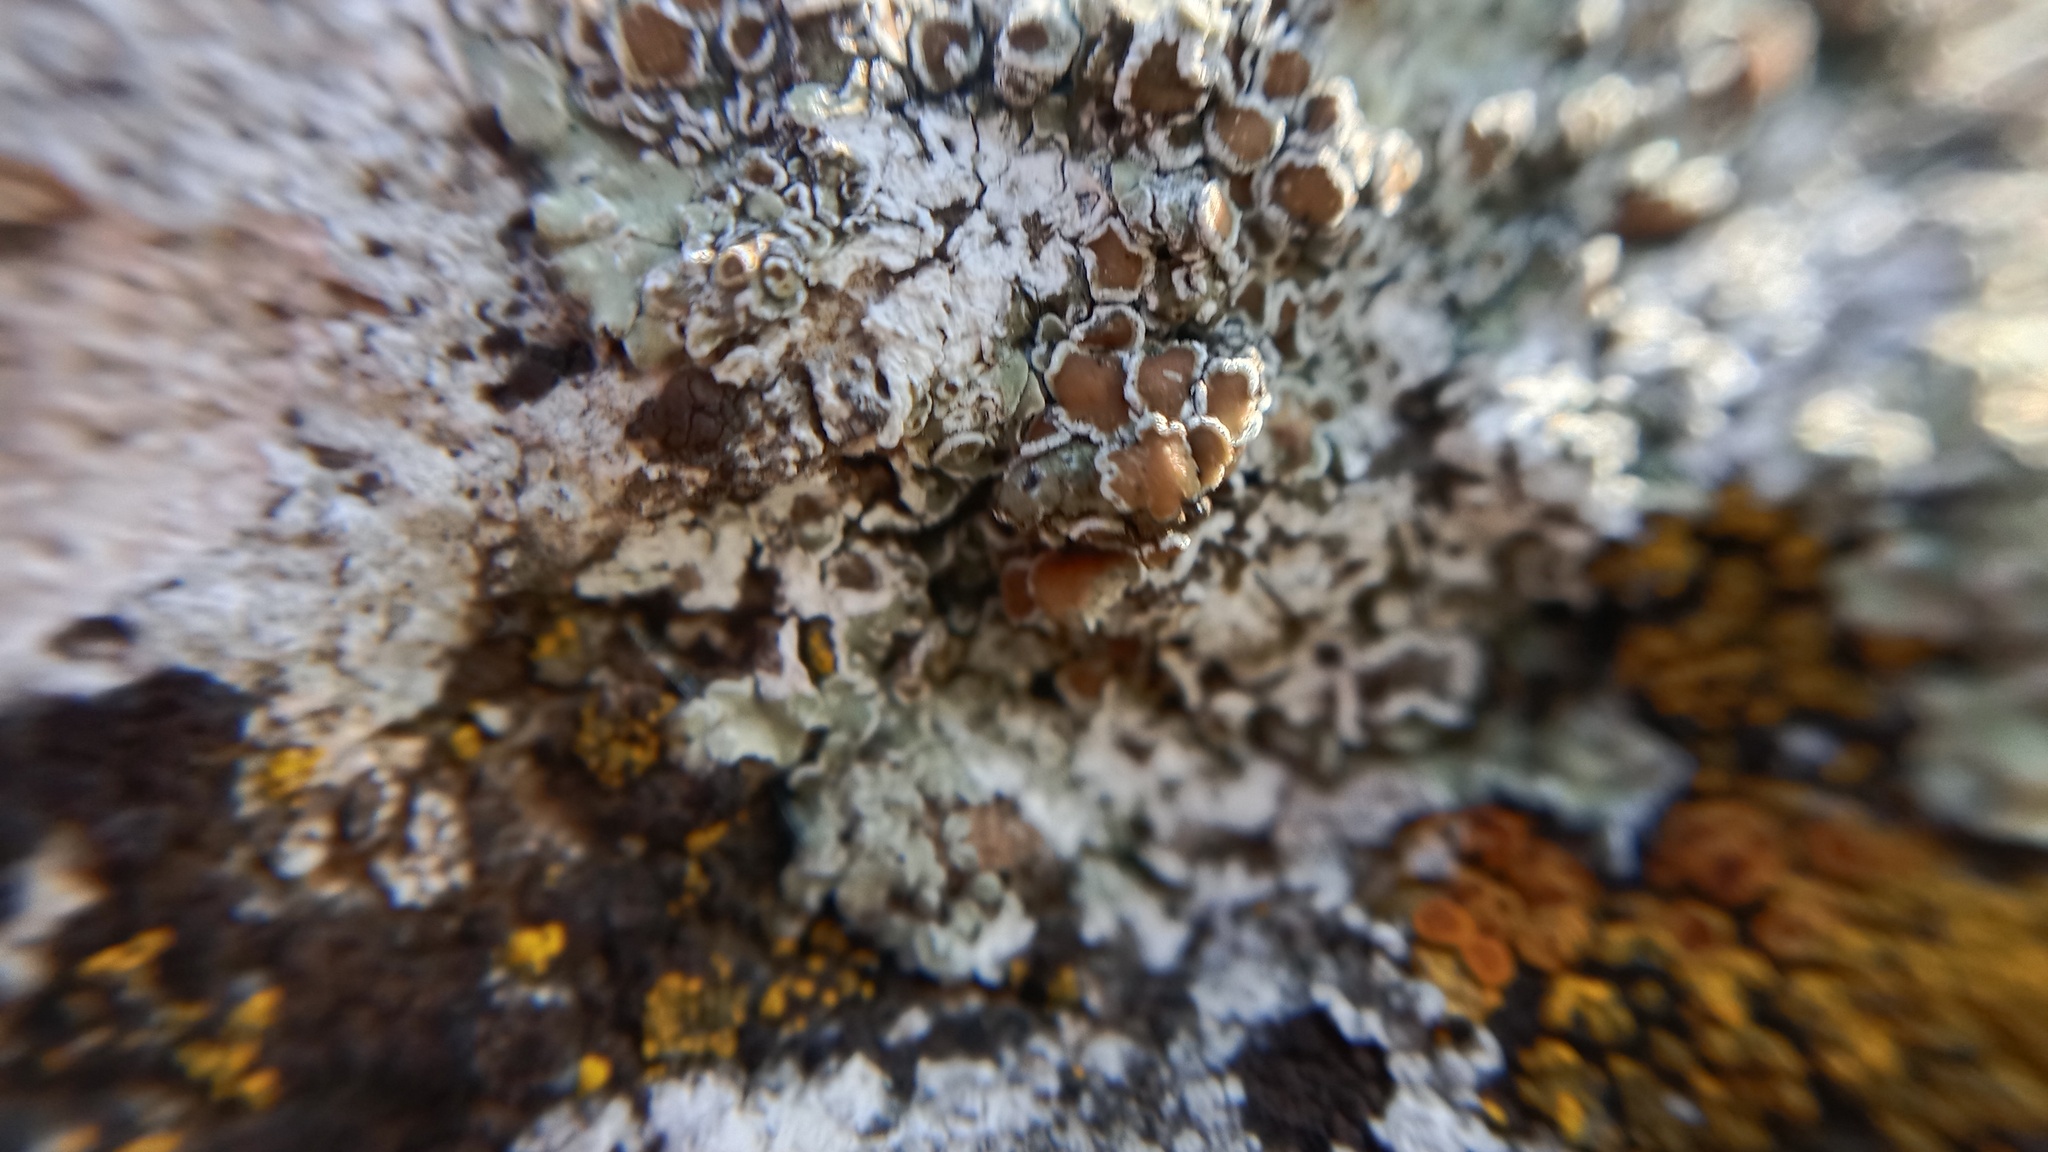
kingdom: Fungi
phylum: Ascomycota
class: Lecanoromycetes
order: Lecanorales
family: Lecanoraceae
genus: Protoparmeliopsis
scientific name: Protoparmeliopsis muralis
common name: Stonewall rim lichen
